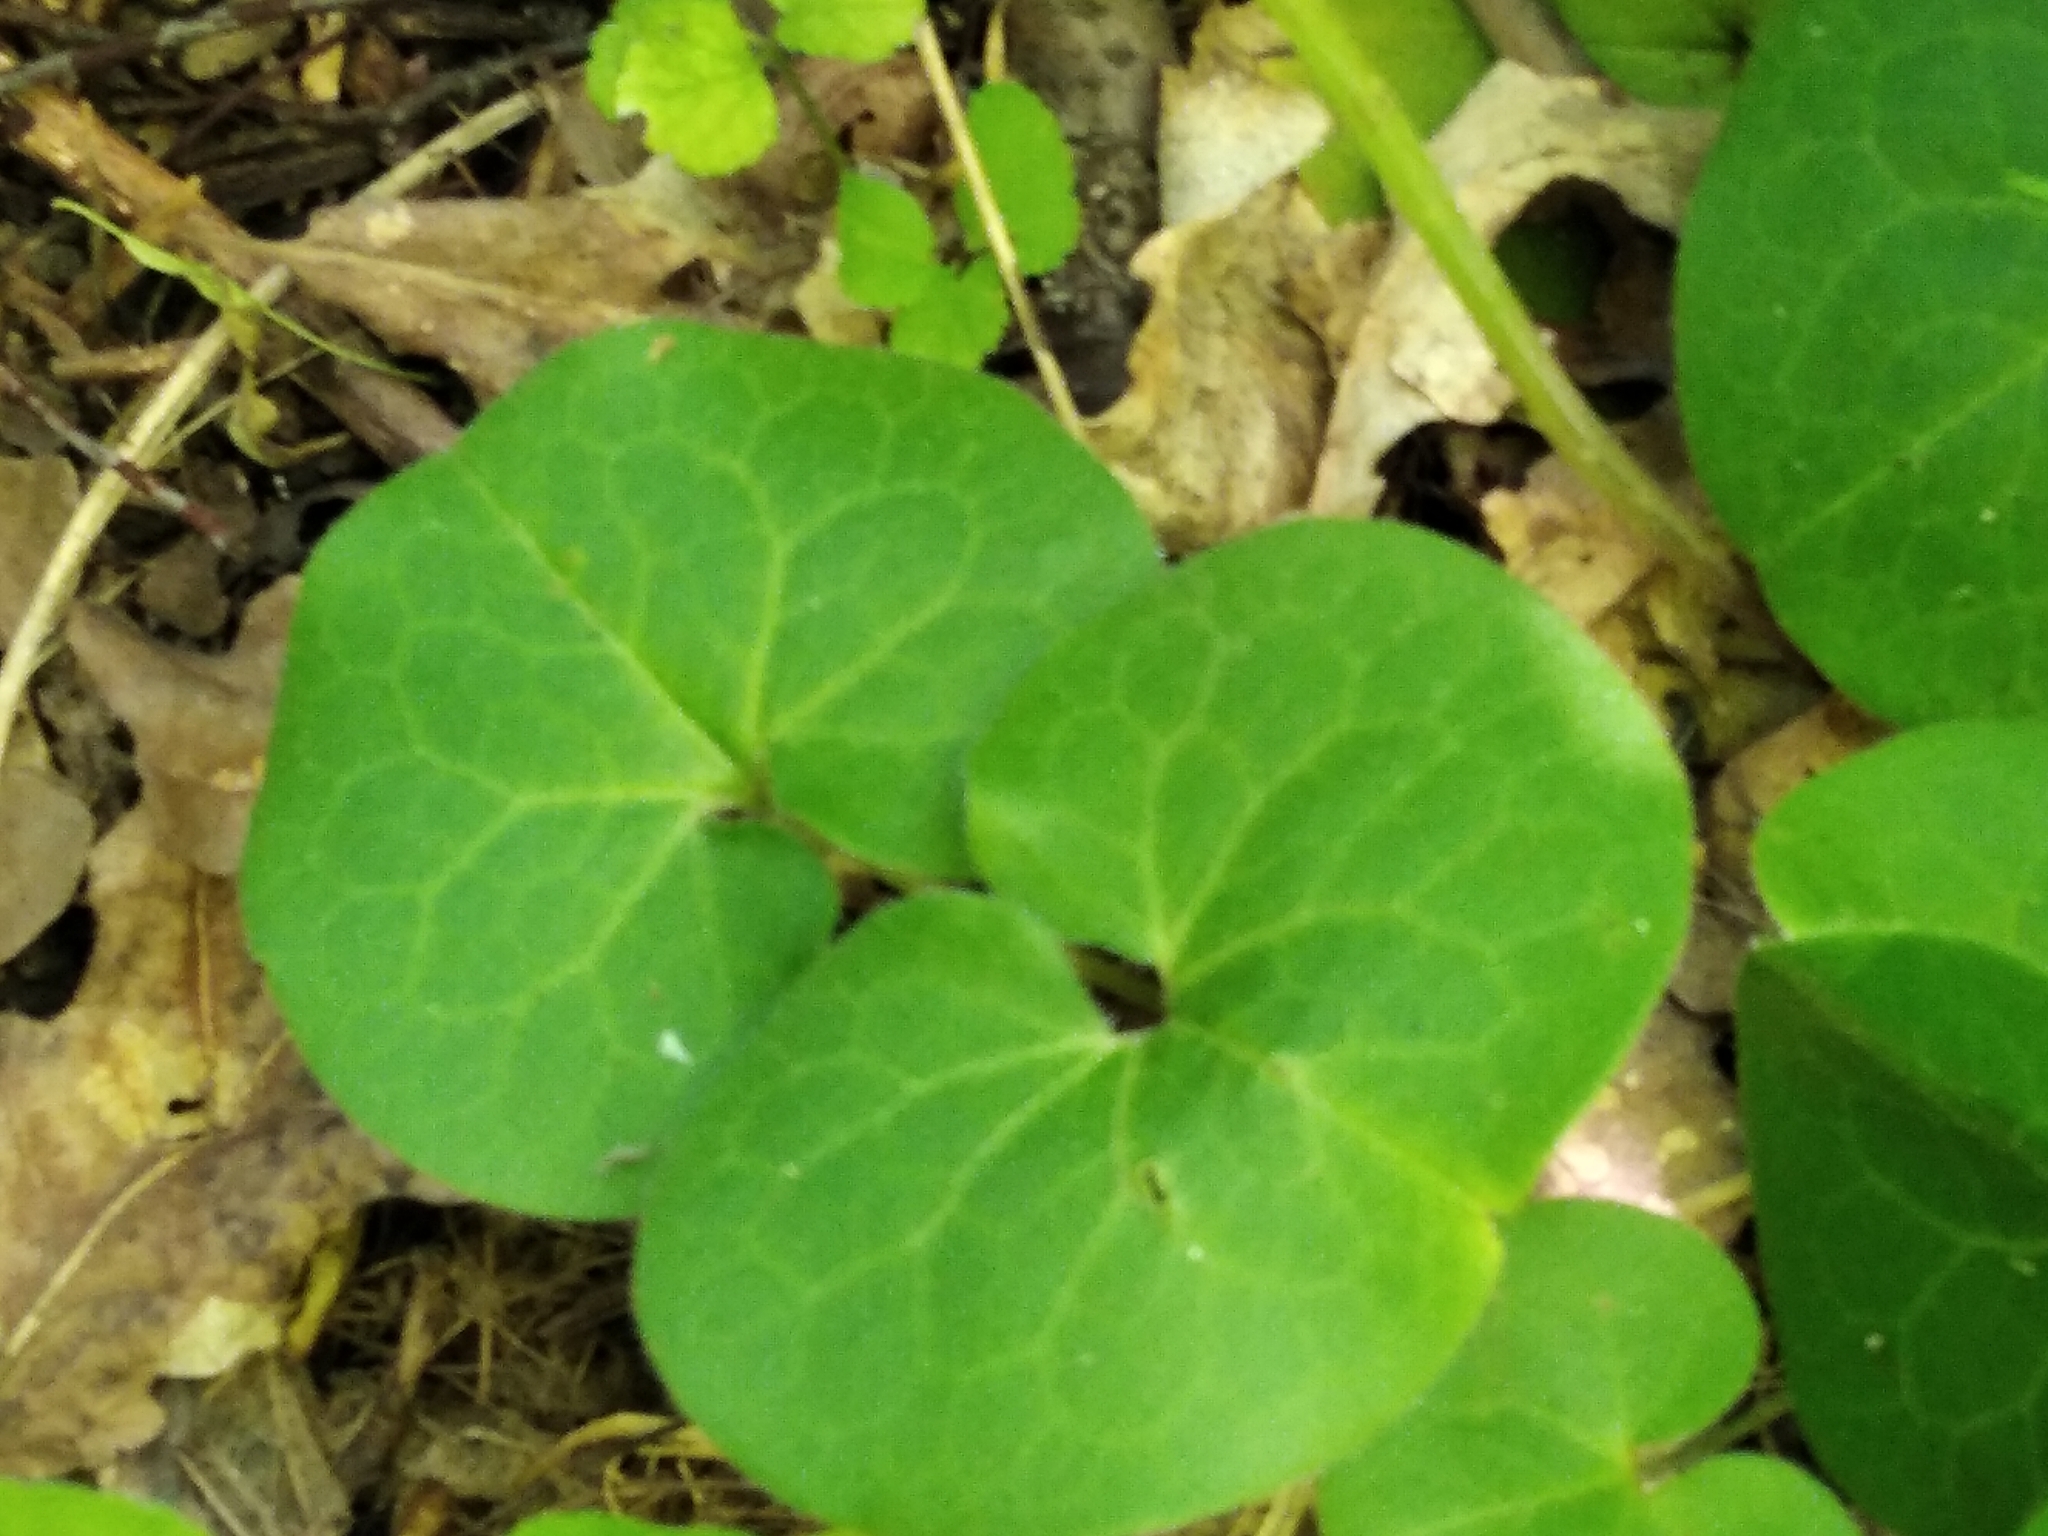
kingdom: Plantae
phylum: Tracheophyta
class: Magnoliopsida
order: Piperales
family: Aristolochiaceae
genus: Asarum
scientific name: Asarum europaeum
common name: Asarabacca
